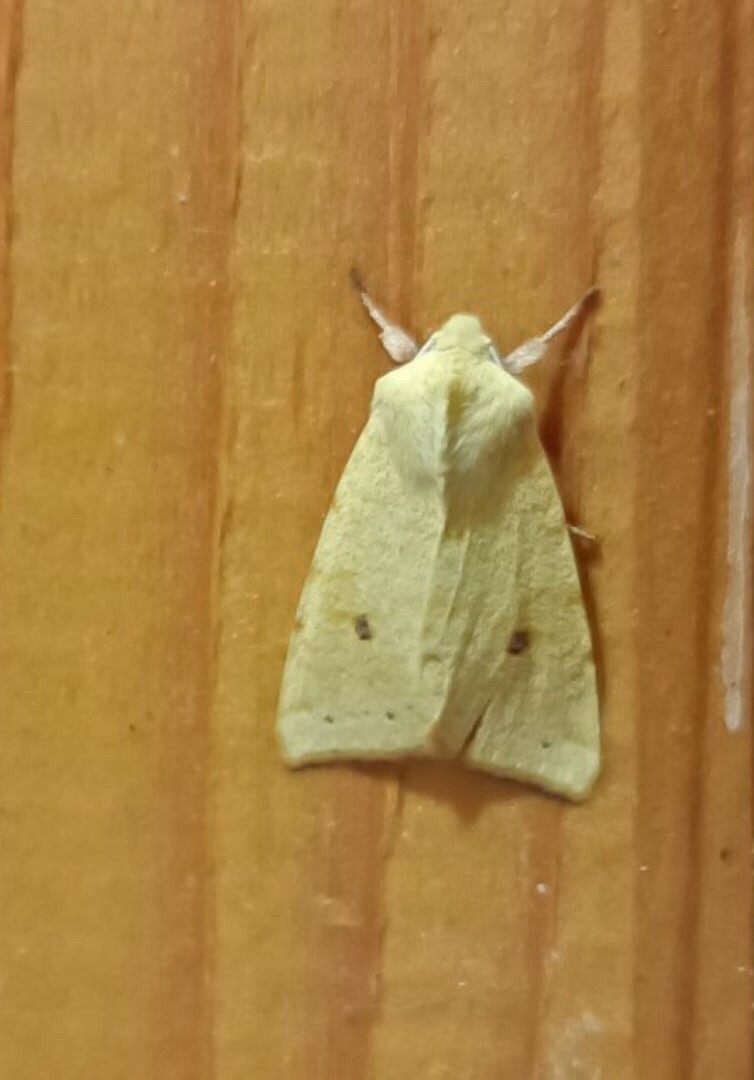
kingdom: Animalia
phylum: Arthropoda
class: Insecta
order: Lepidoptera
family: Noctuidae
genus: Xanthia
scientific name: Xanthia icteritia
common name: The sallow
